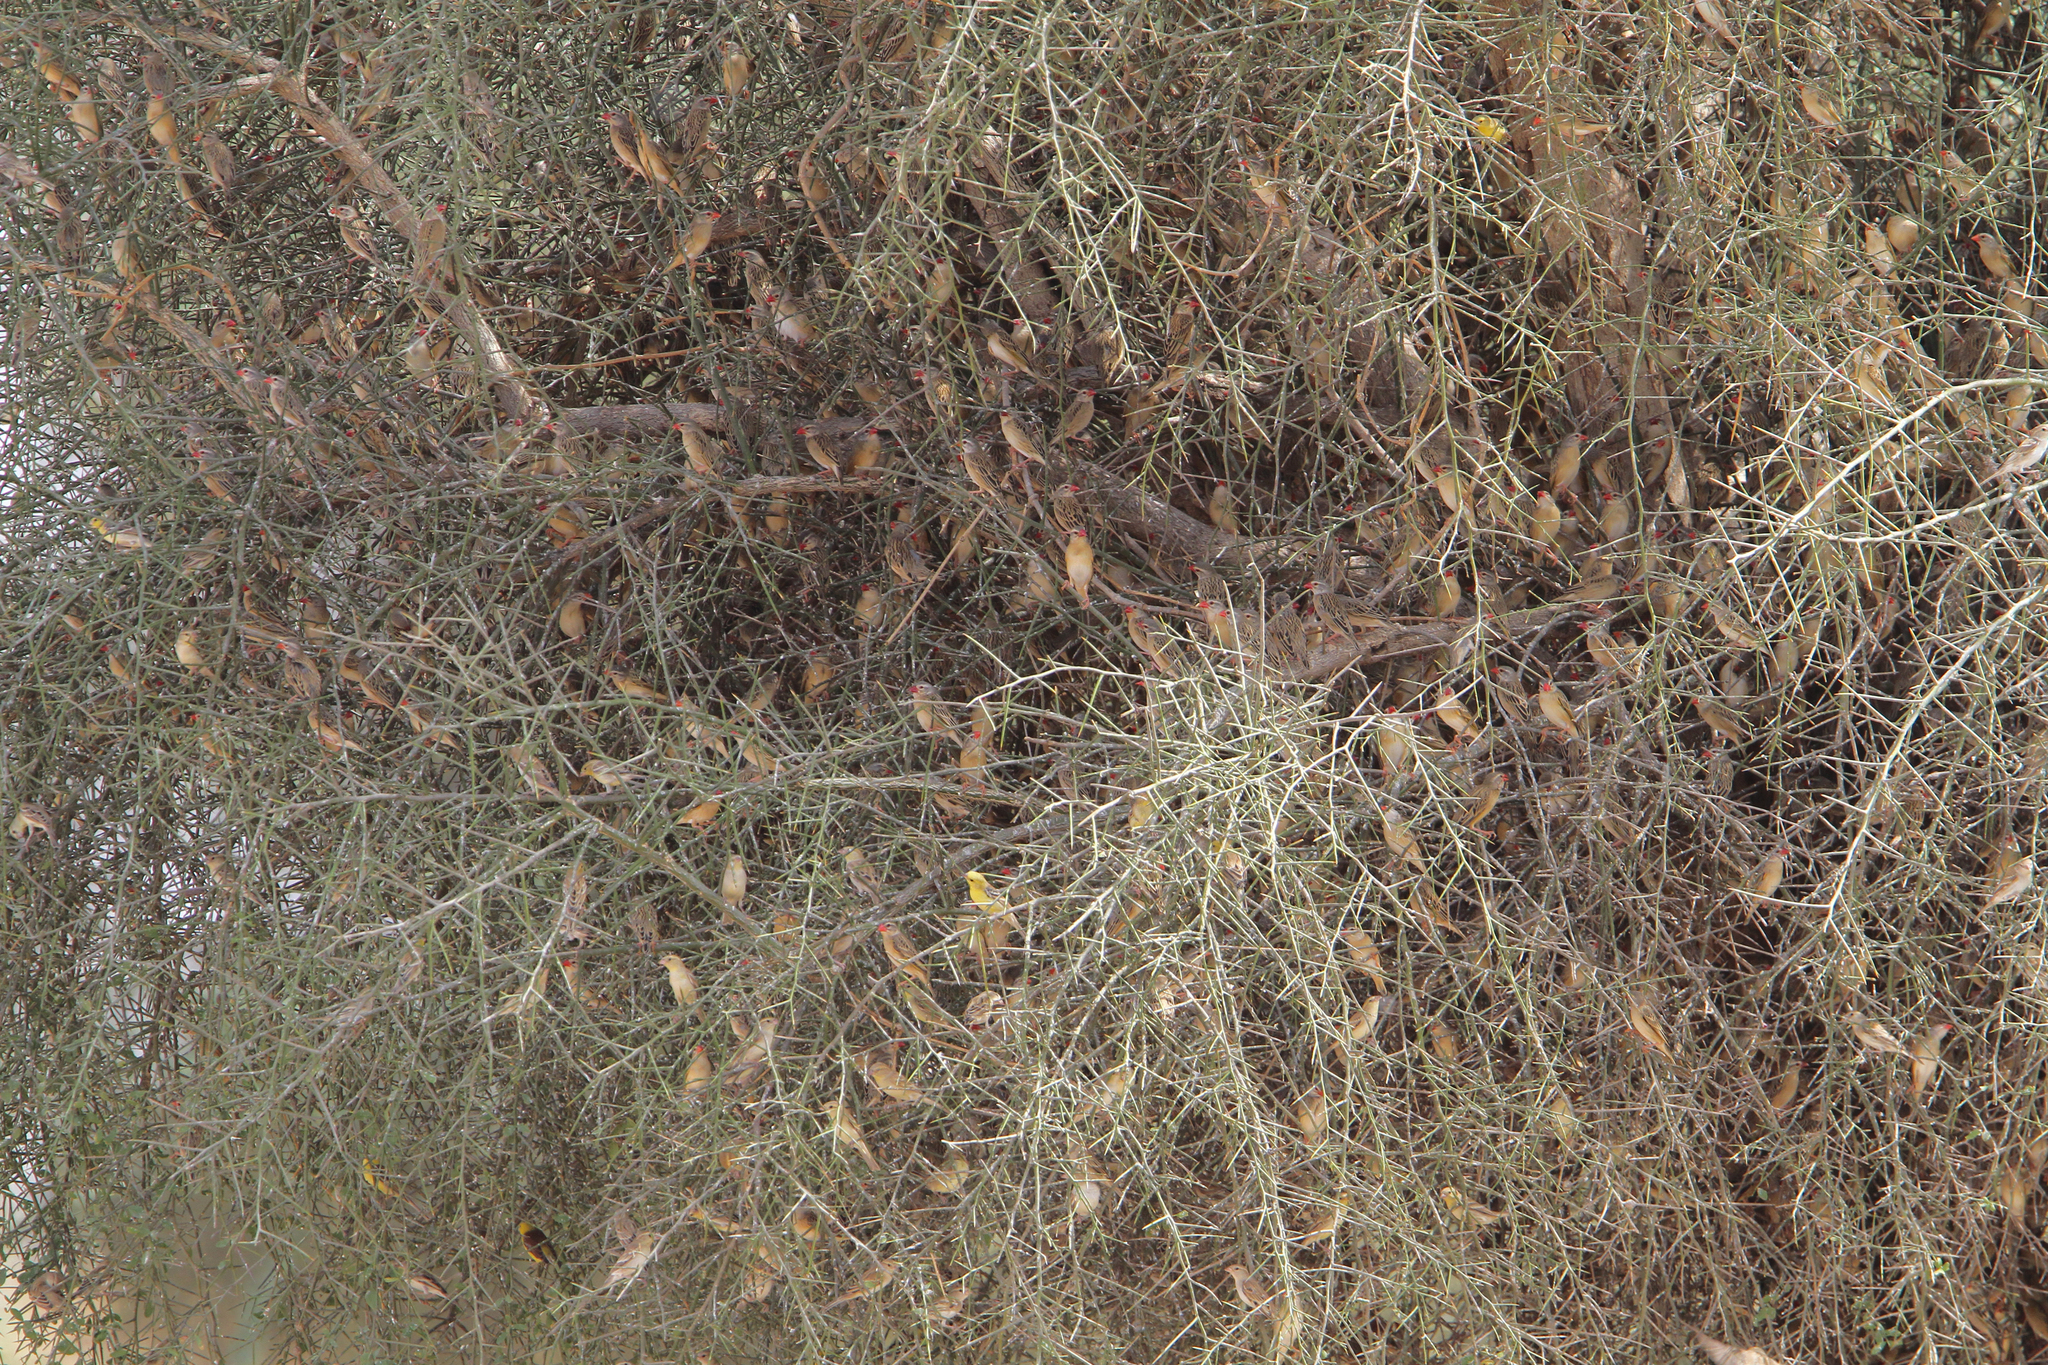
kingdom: Animalia
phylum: Chordata
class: Aves
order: Passeriformes
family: Passeridae
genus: Passer
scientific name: Passer luteus
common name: Sudan golden sparrow
